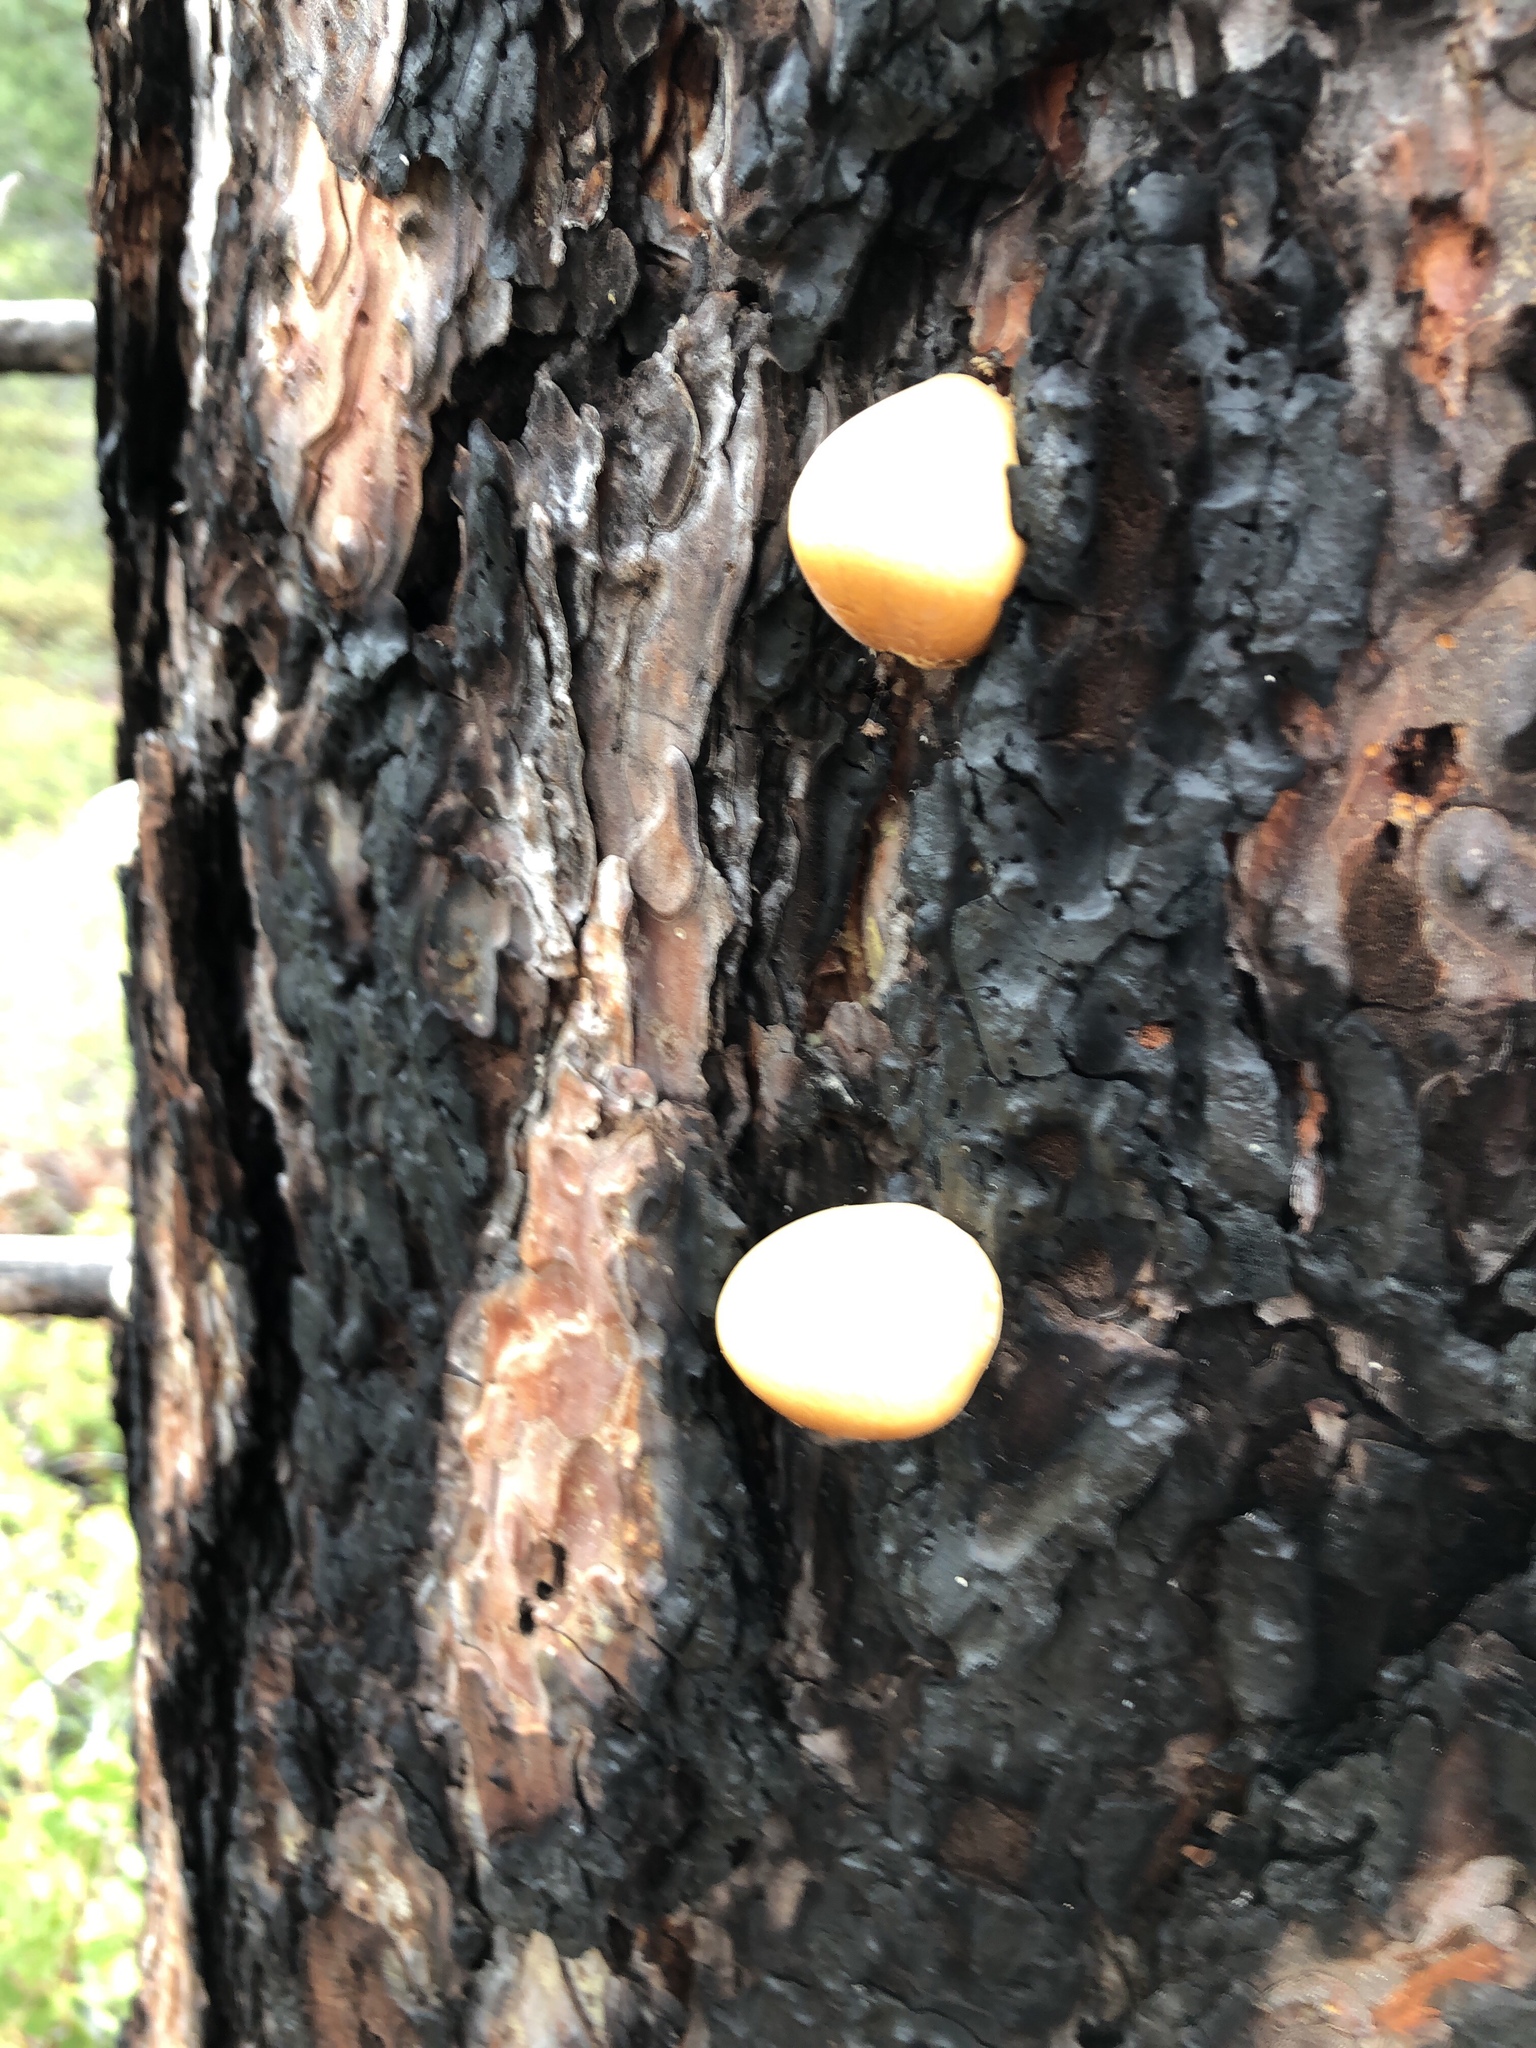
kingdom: Fungi
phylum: Basidiomycota
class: Agaricomycetes
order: Polyporales
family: Polyporaceae
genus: Cryptoporus
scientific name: Cryptoporus volvatus
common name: Veiled polypore
